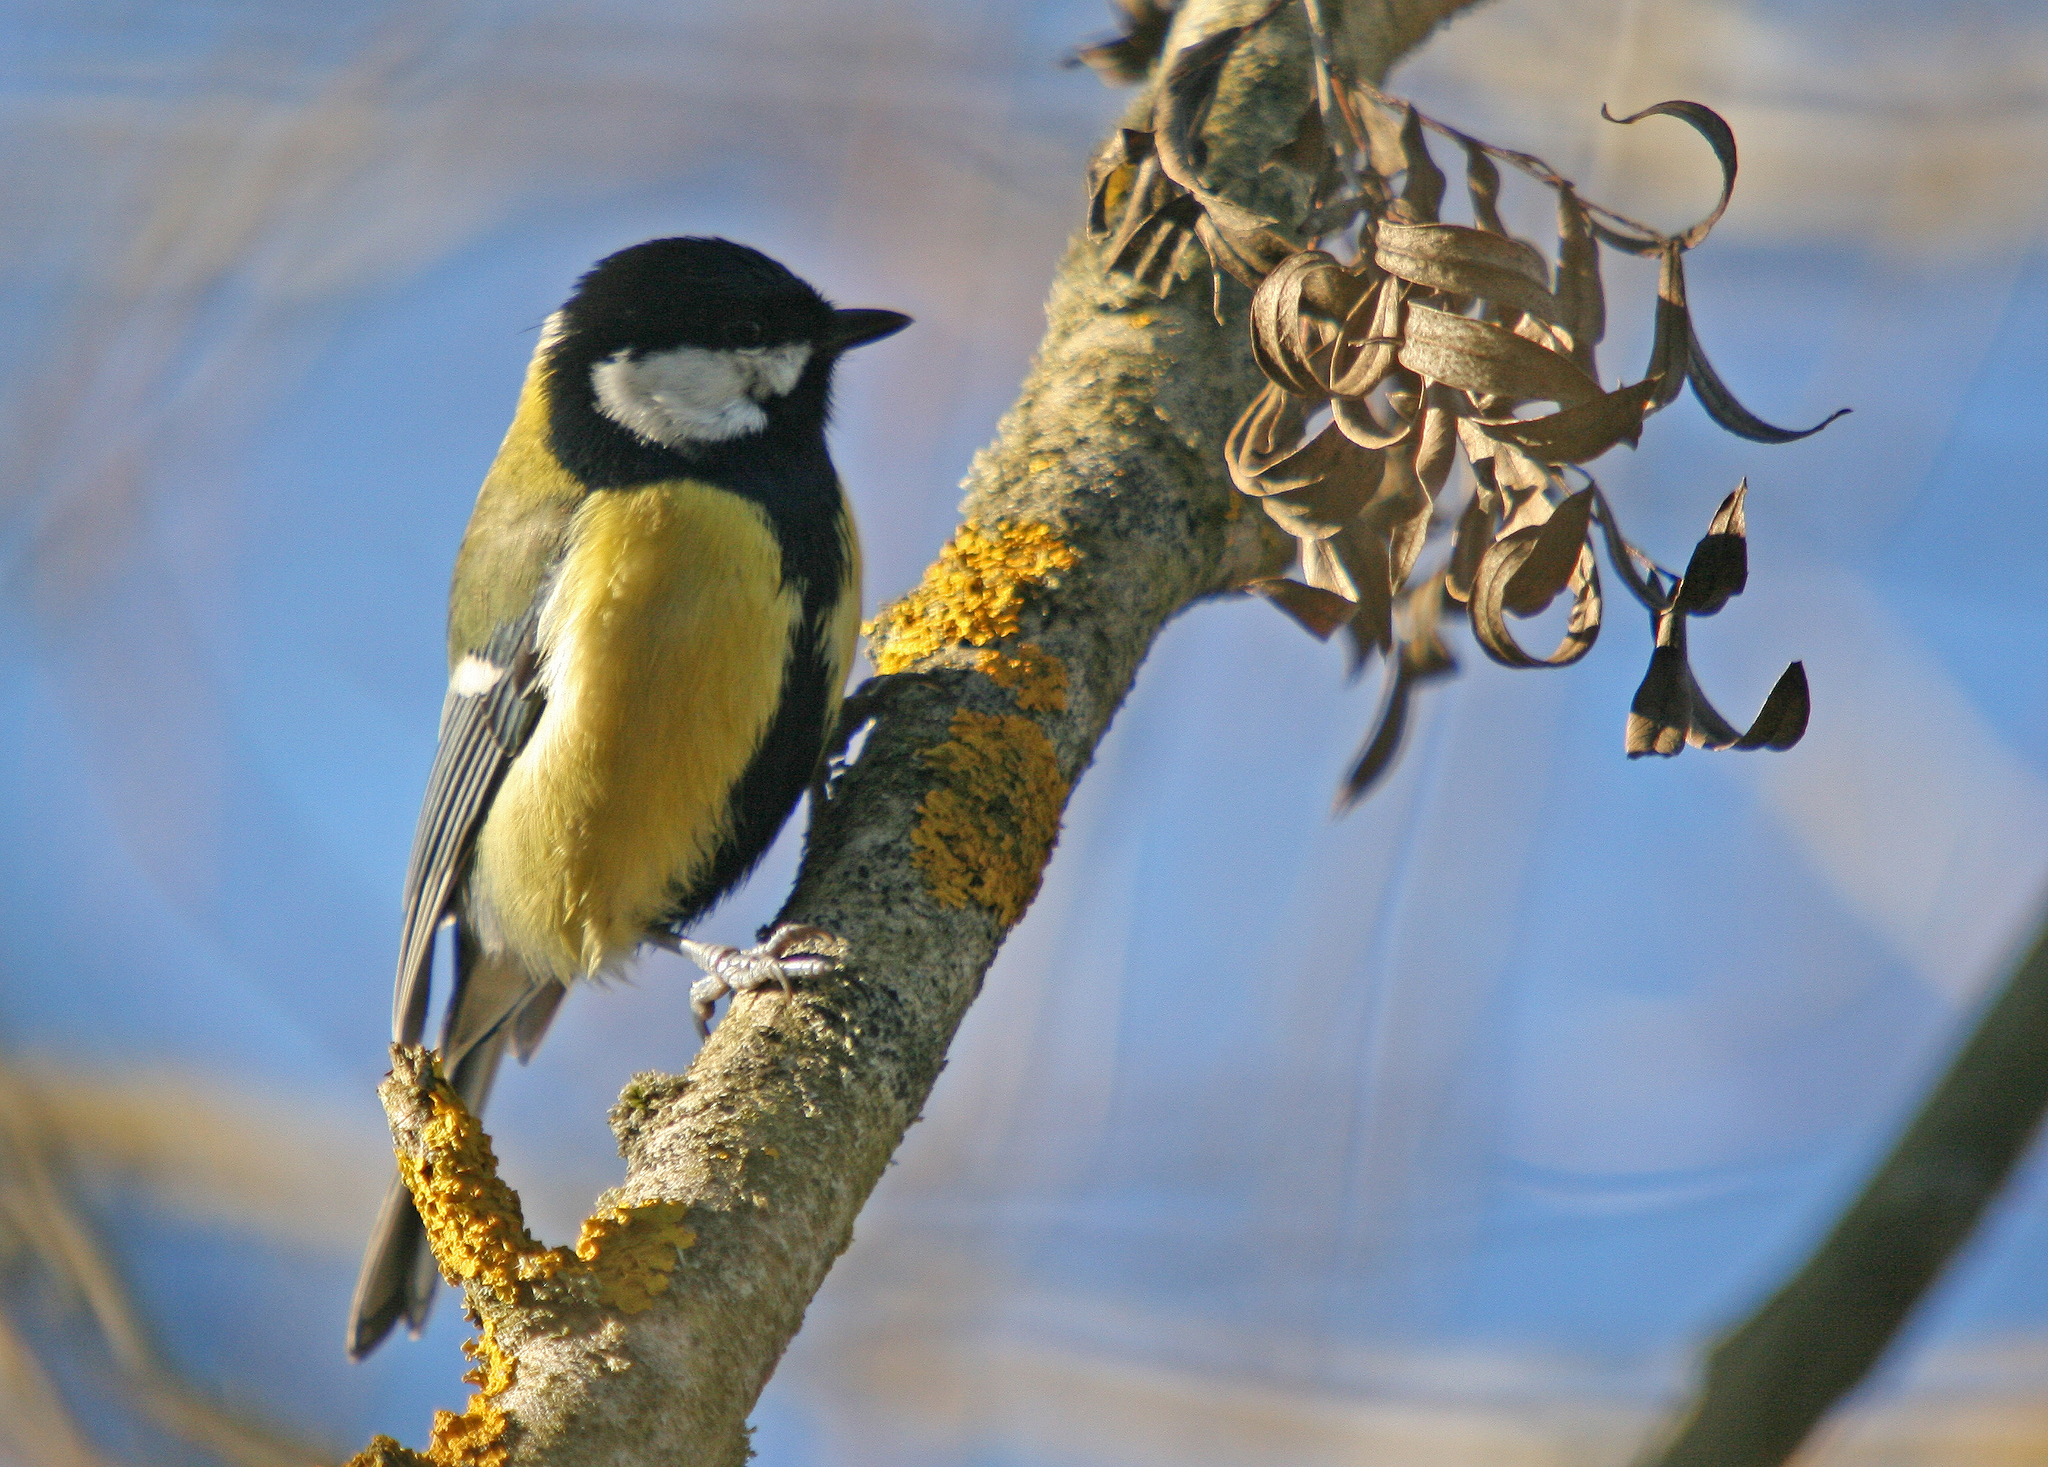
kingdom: Animalia
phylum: Chordata
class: Aves
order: Passeriformes
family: Paridae
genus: Parus
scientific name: Parus major
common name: Great tit
